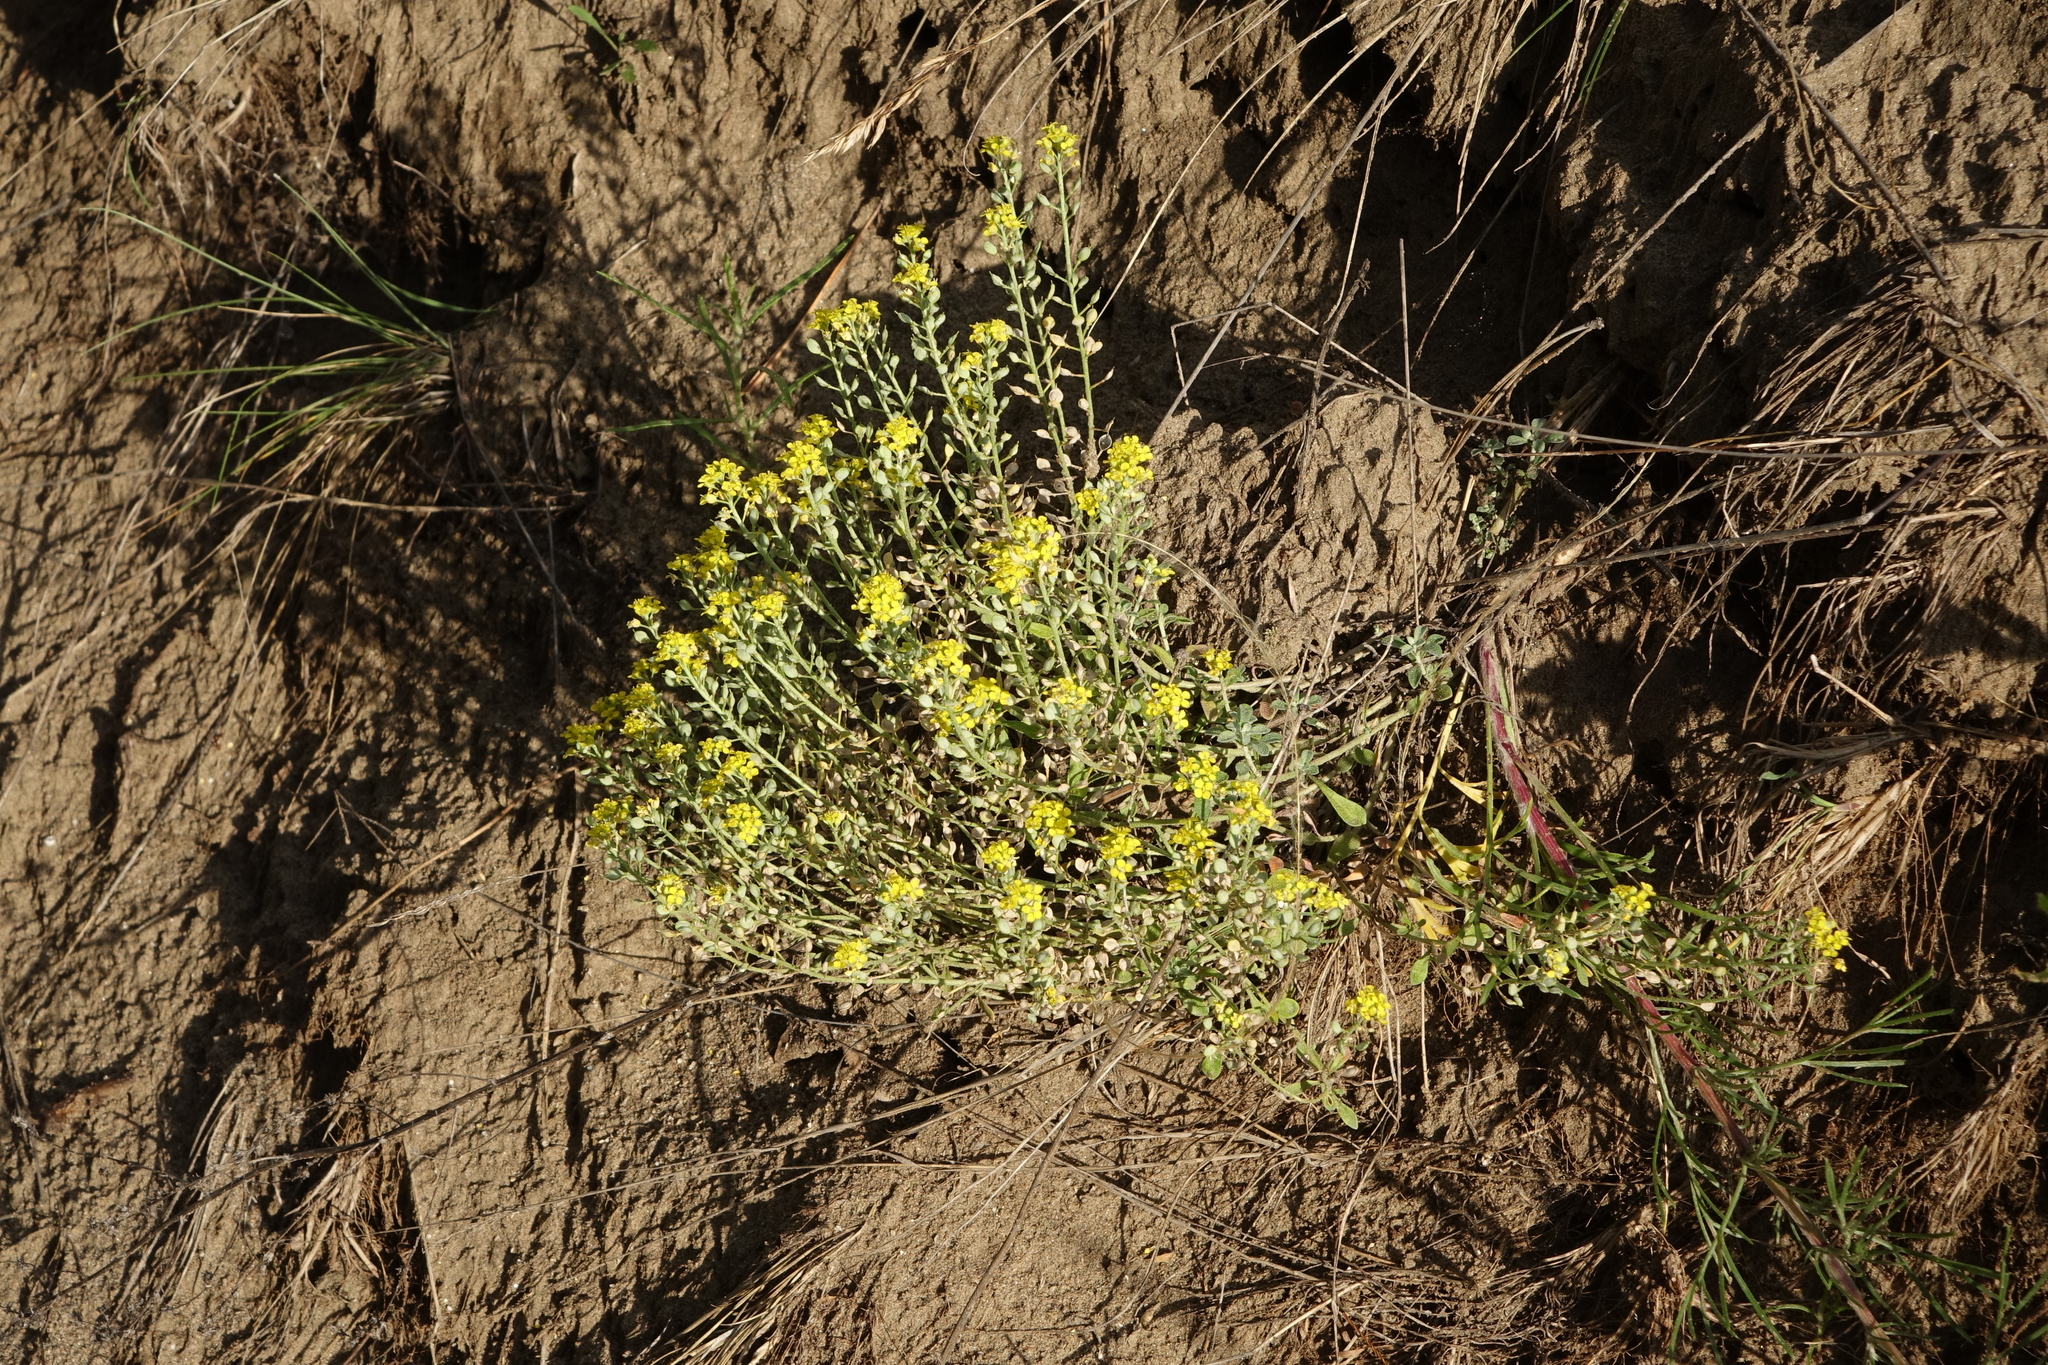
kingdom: Plantae
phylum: Tracheophyta
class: Magnoliopsida
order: Brassicales
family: Brassicaceae
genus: Odontarrhena
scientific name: Odontarrhena obovata
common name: American alyssum
